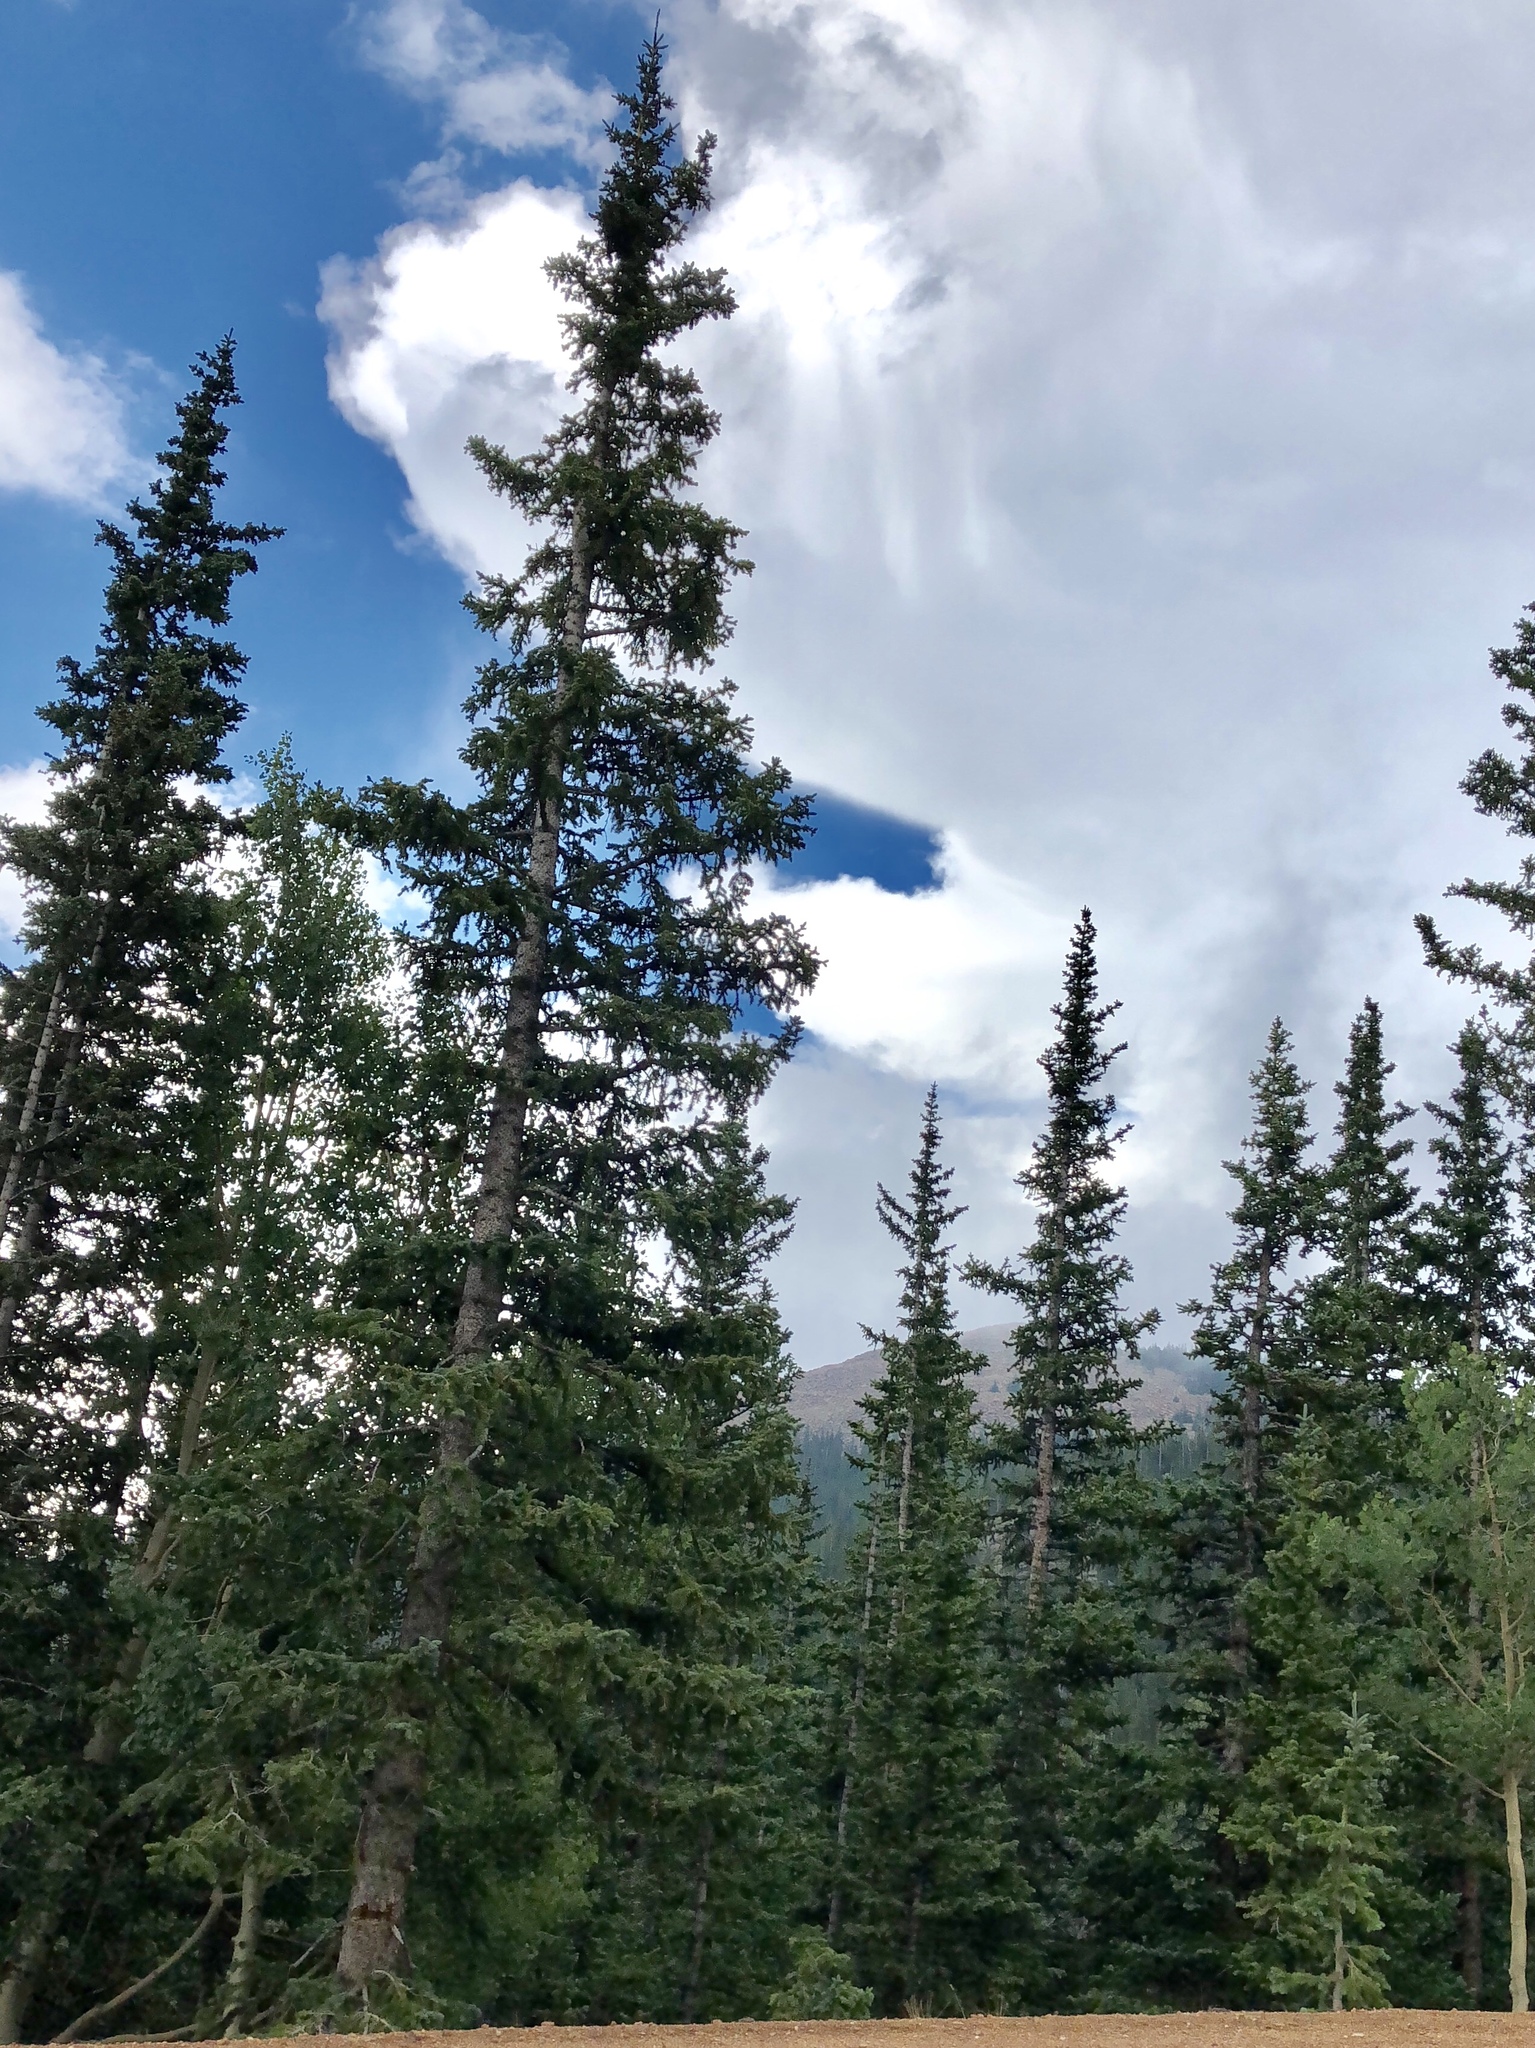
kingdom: Plantae
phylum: Tracheophyta
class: Pinopsida
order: Pinales
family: Pinaceae
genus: Picea
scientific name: Picea engelmannii
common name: Engelmann spruce
